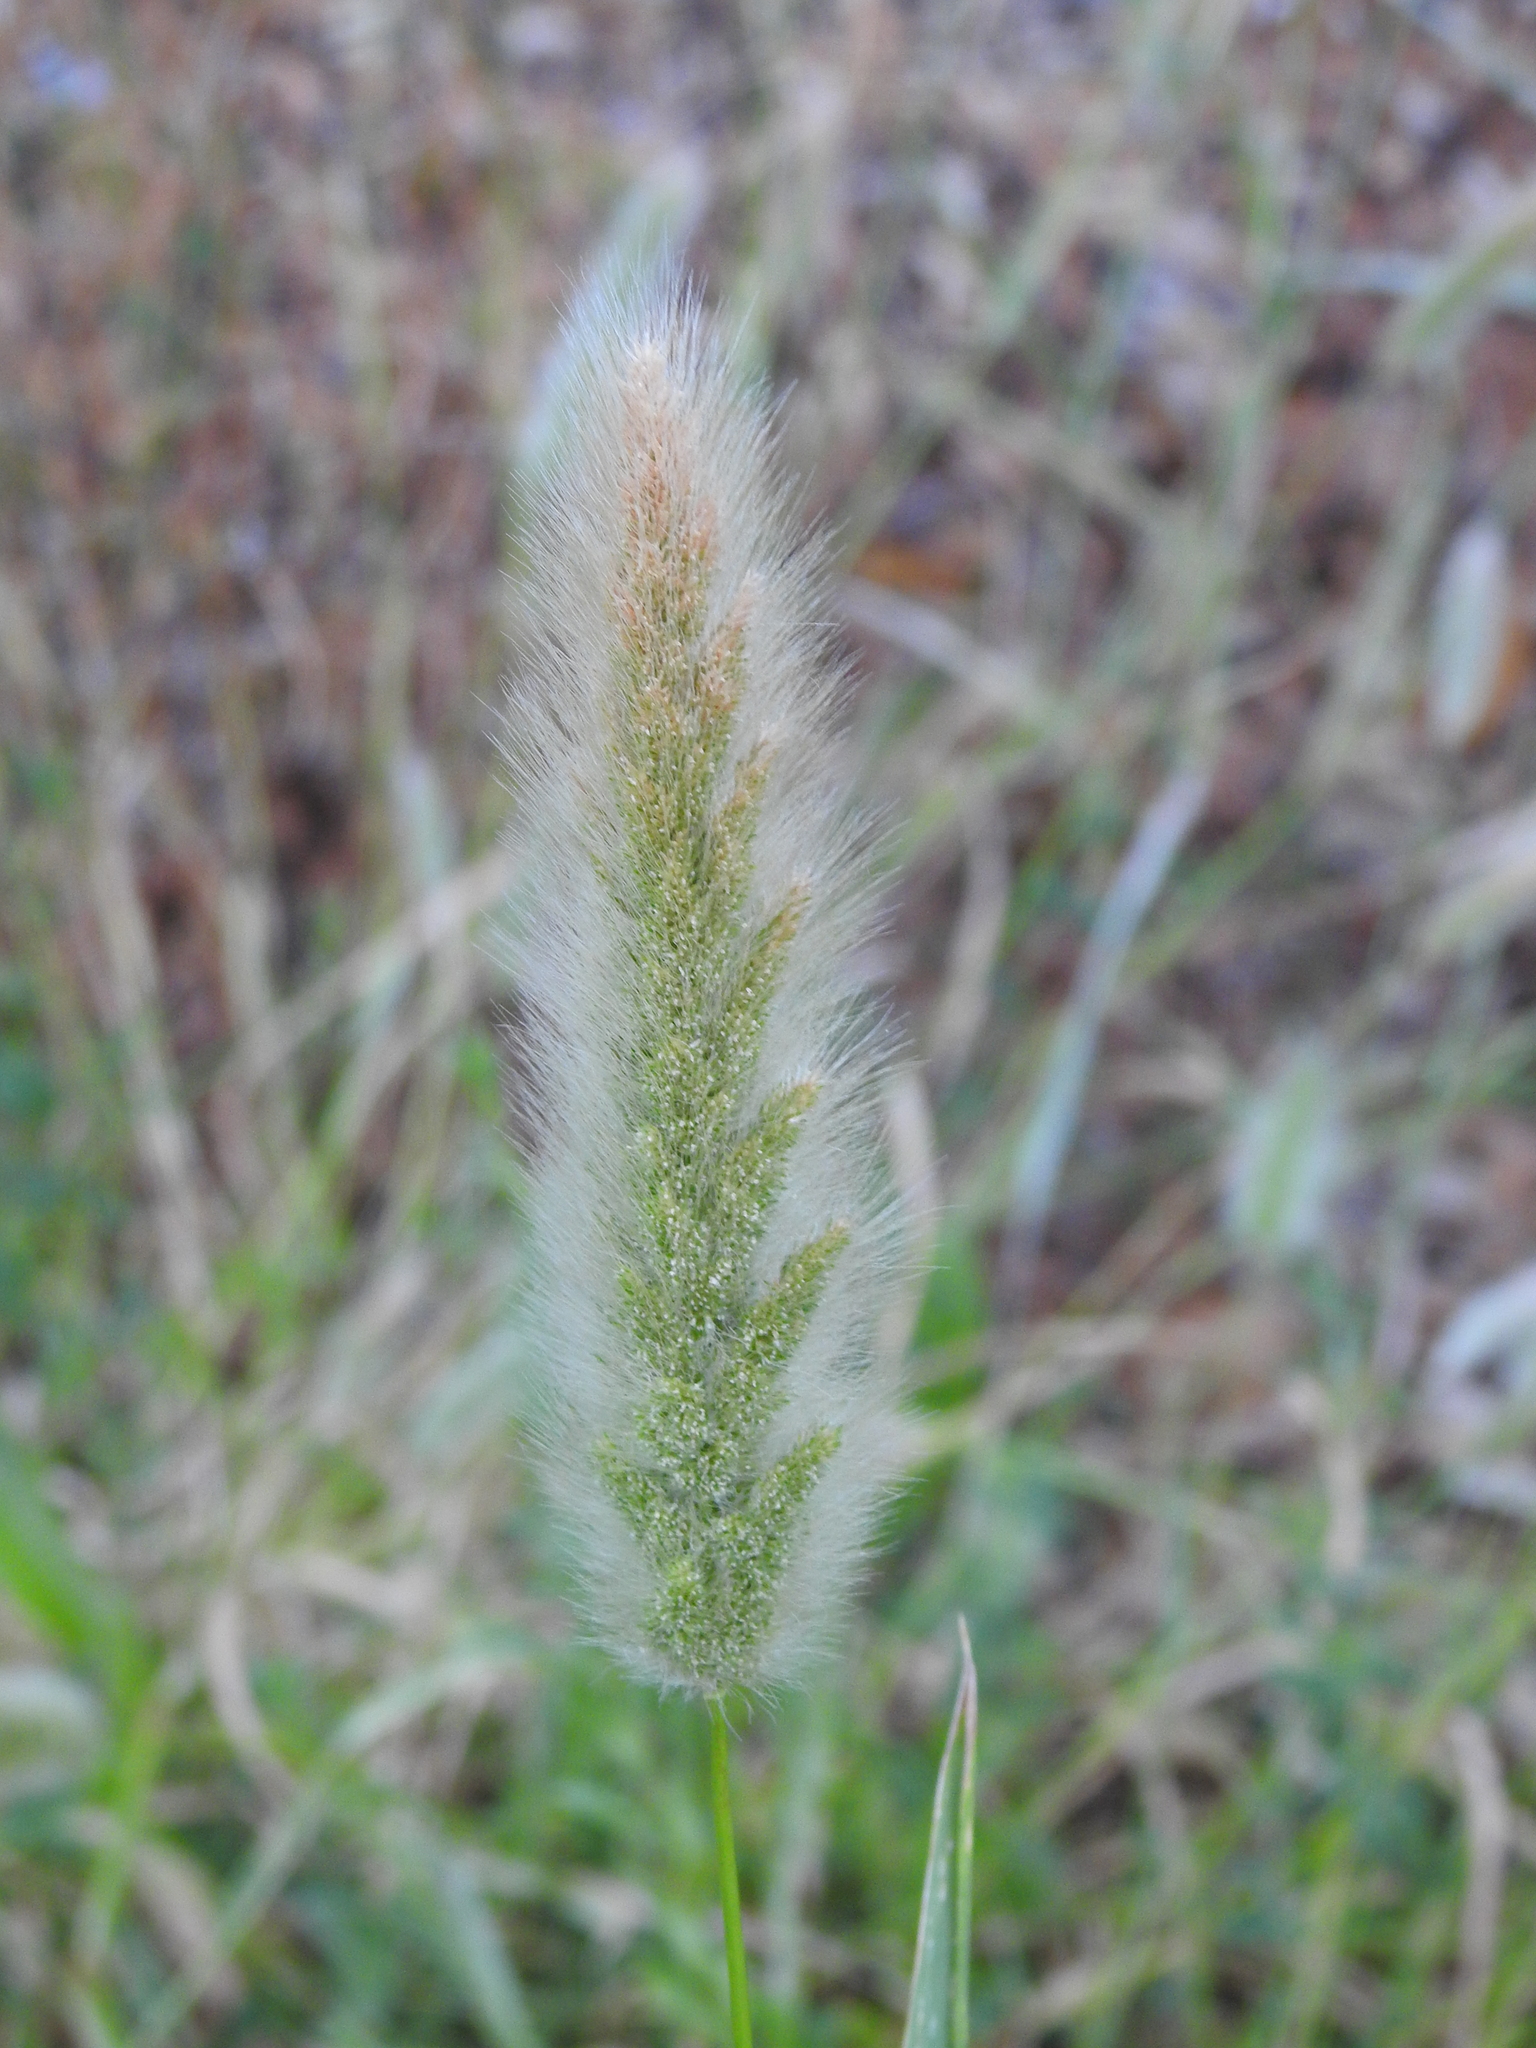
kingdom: Plantae
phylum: Tracheophyta
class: Liliopsida
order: Poales
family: Poaceae
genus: Polypogon
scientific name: Polypogon monspeliensis
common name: Annual rabbitsfoot grass
